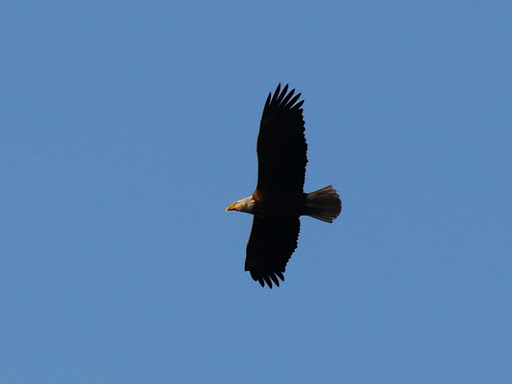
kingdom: Animalia
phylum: Chordata
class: Aves
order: Accipitriformes
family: Accipitridae
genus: Haliaeetus
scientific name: Haliaeetus leucocephalus
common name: Bald eagle
